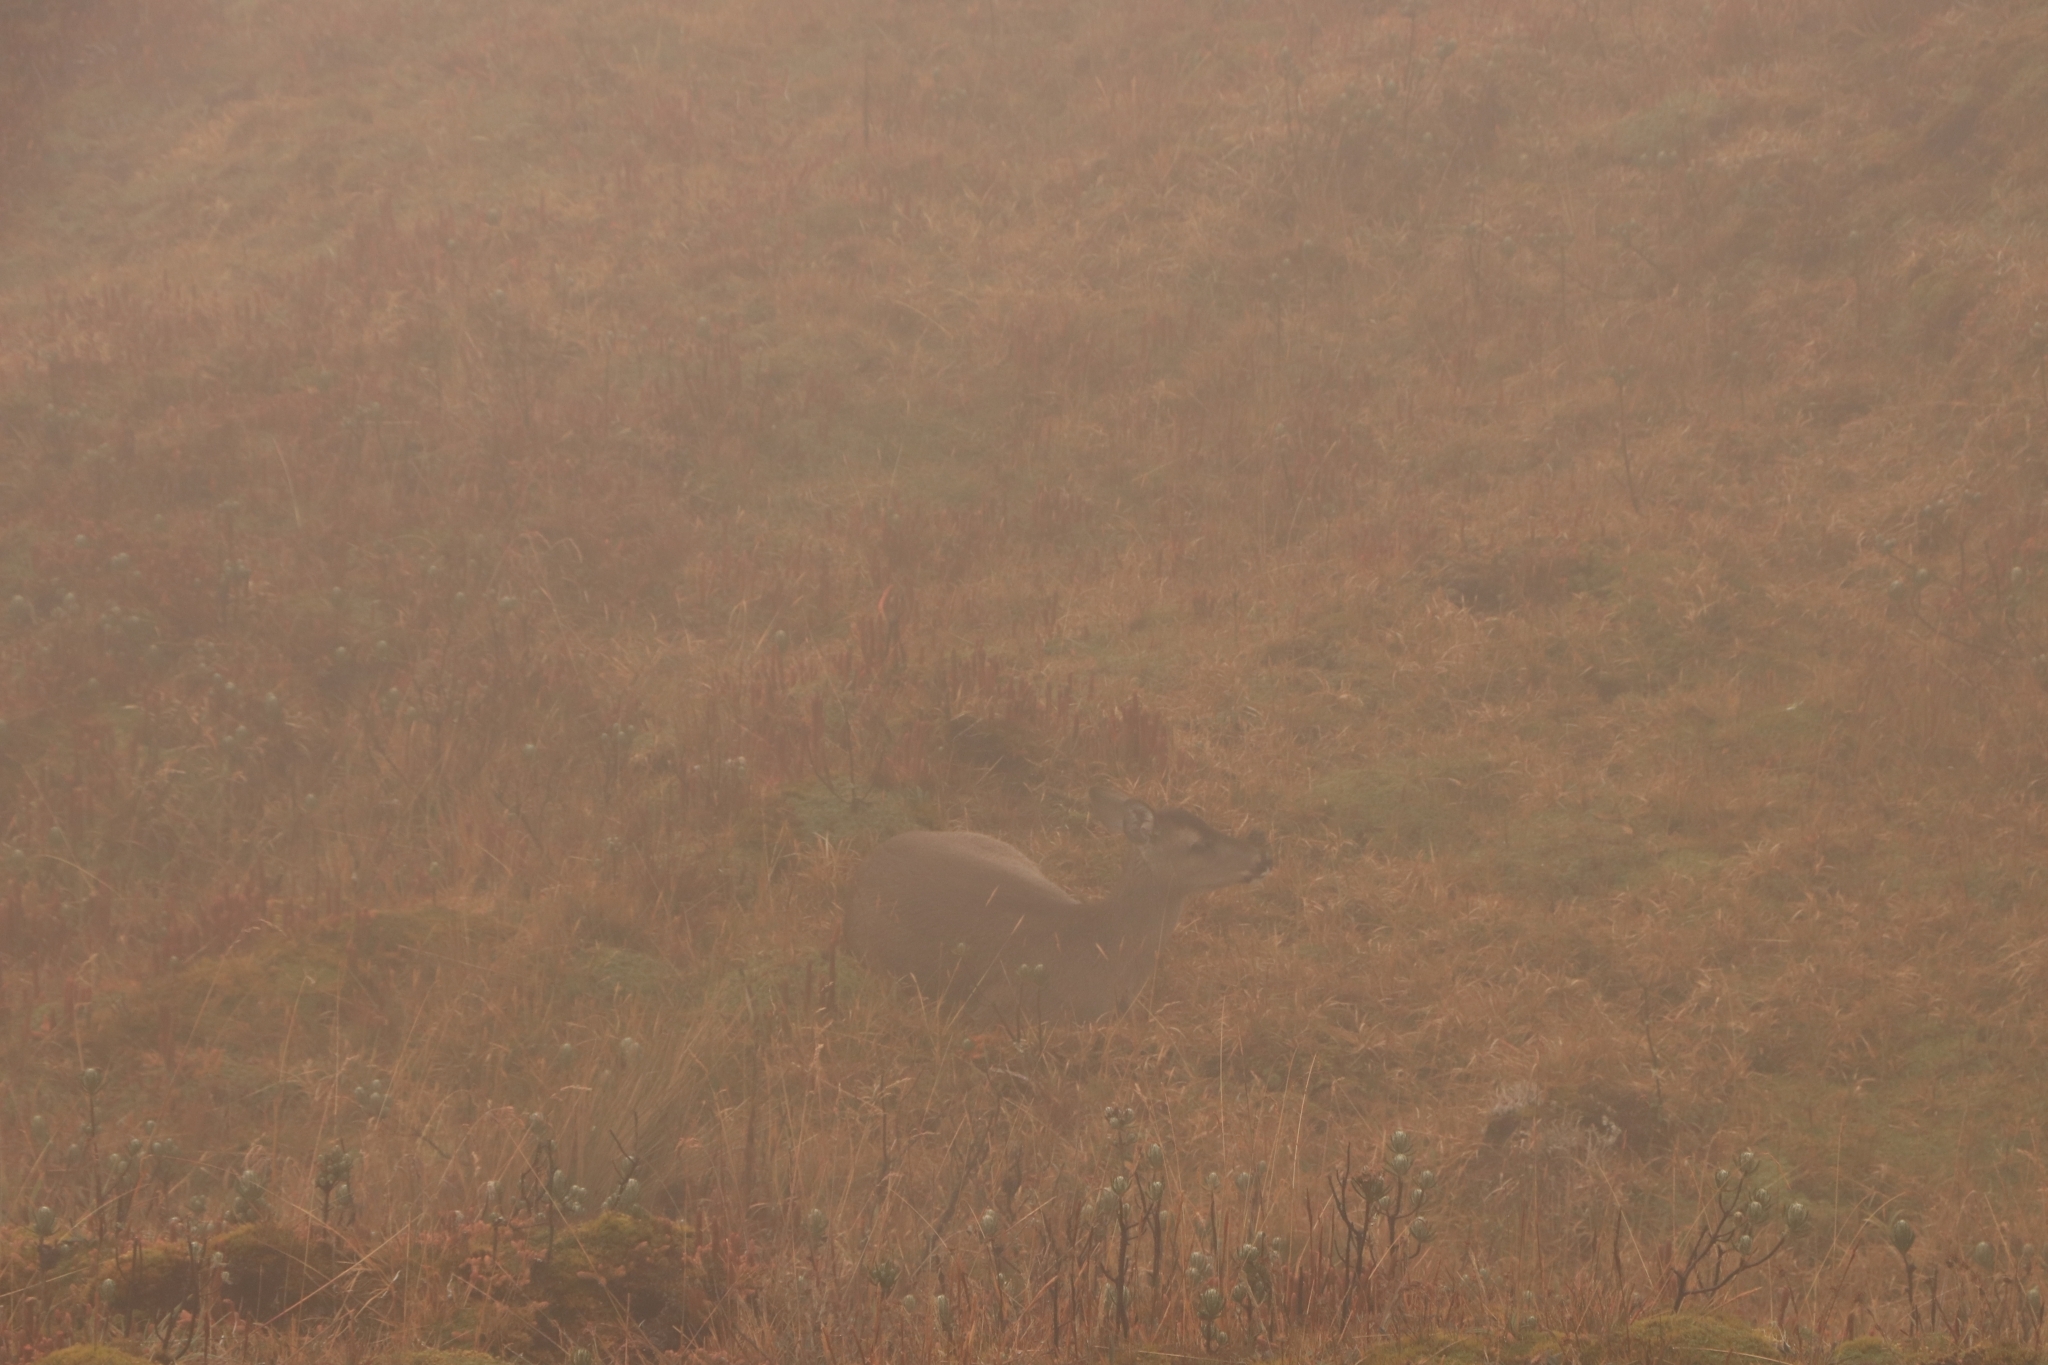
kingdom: Animalia
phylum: Chordata
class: Mammalia
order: Artiodactyla
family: Cervidae
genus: Odocoileus
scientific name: Odocoileus virginianus
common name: White-tailed deer
